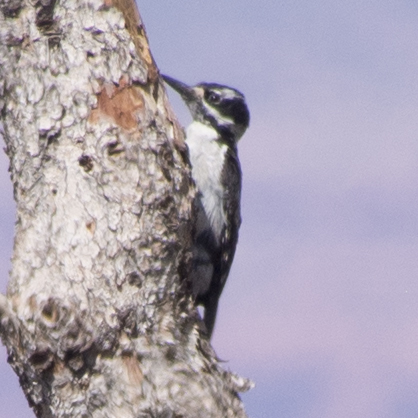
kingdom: Animalia
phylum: Chordata
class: Aves
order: Piciformes
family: Picidae
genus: Leuconotopicus
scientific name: Leuconotopicus villosus
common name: Hairy woodpecker
